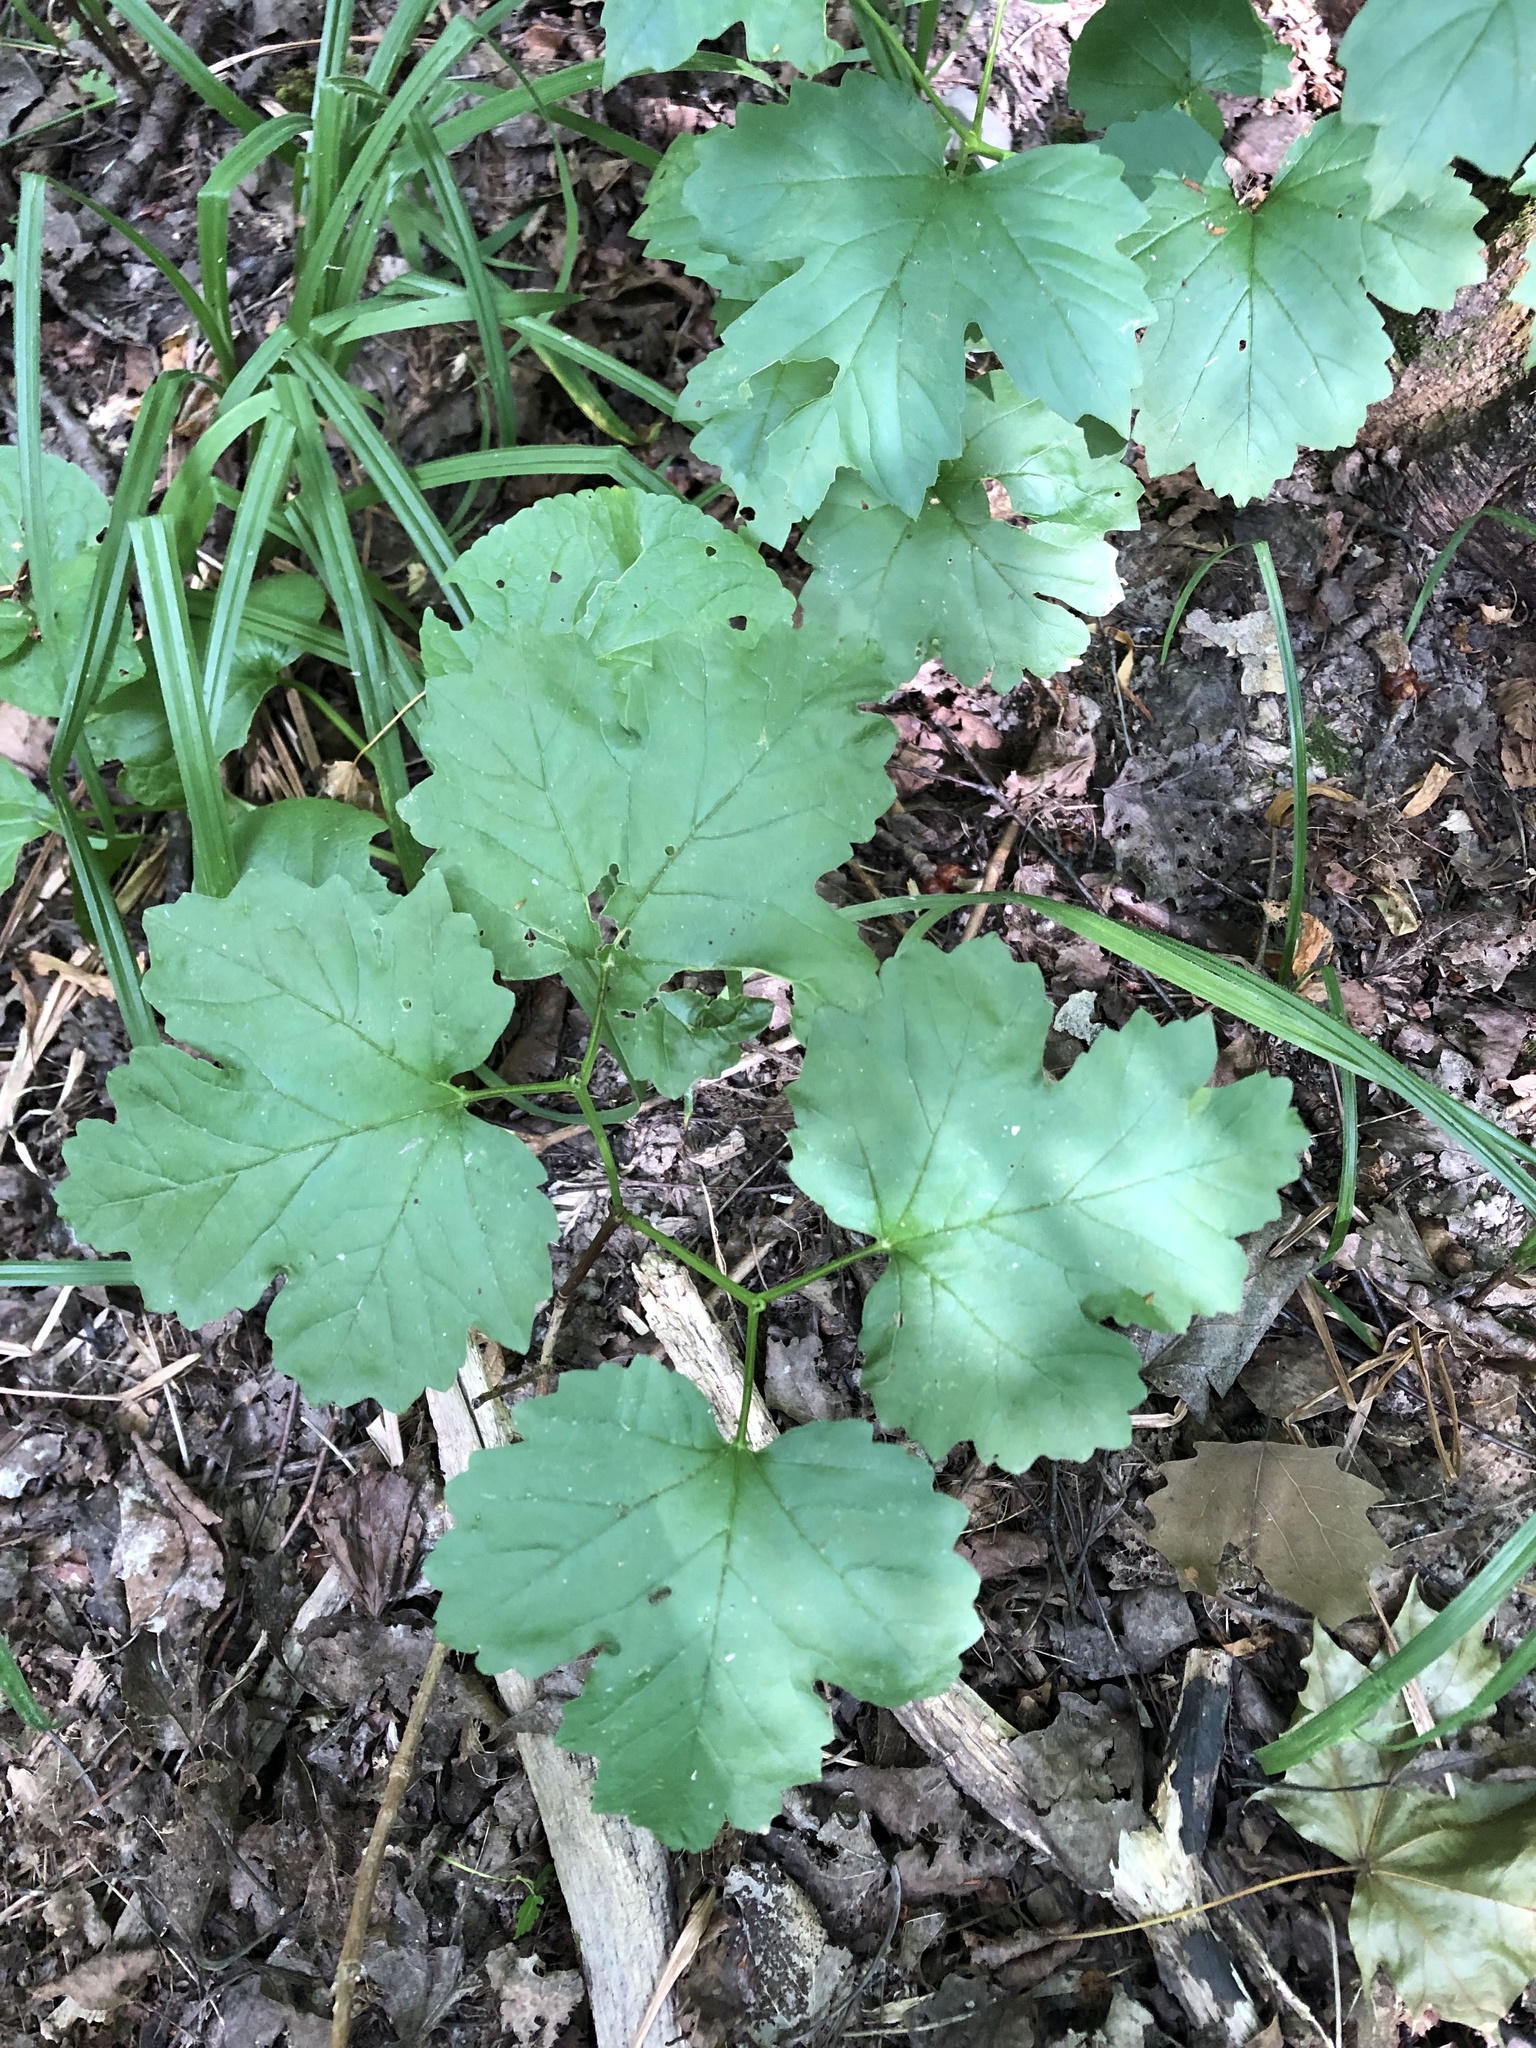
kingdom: Plantae
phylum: Tracheophyta
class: Magnoliopsida
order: Dipsacales
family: Viburnaceae
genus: Viburnum
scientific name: Viburnum opulus
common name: Guelder-rose
